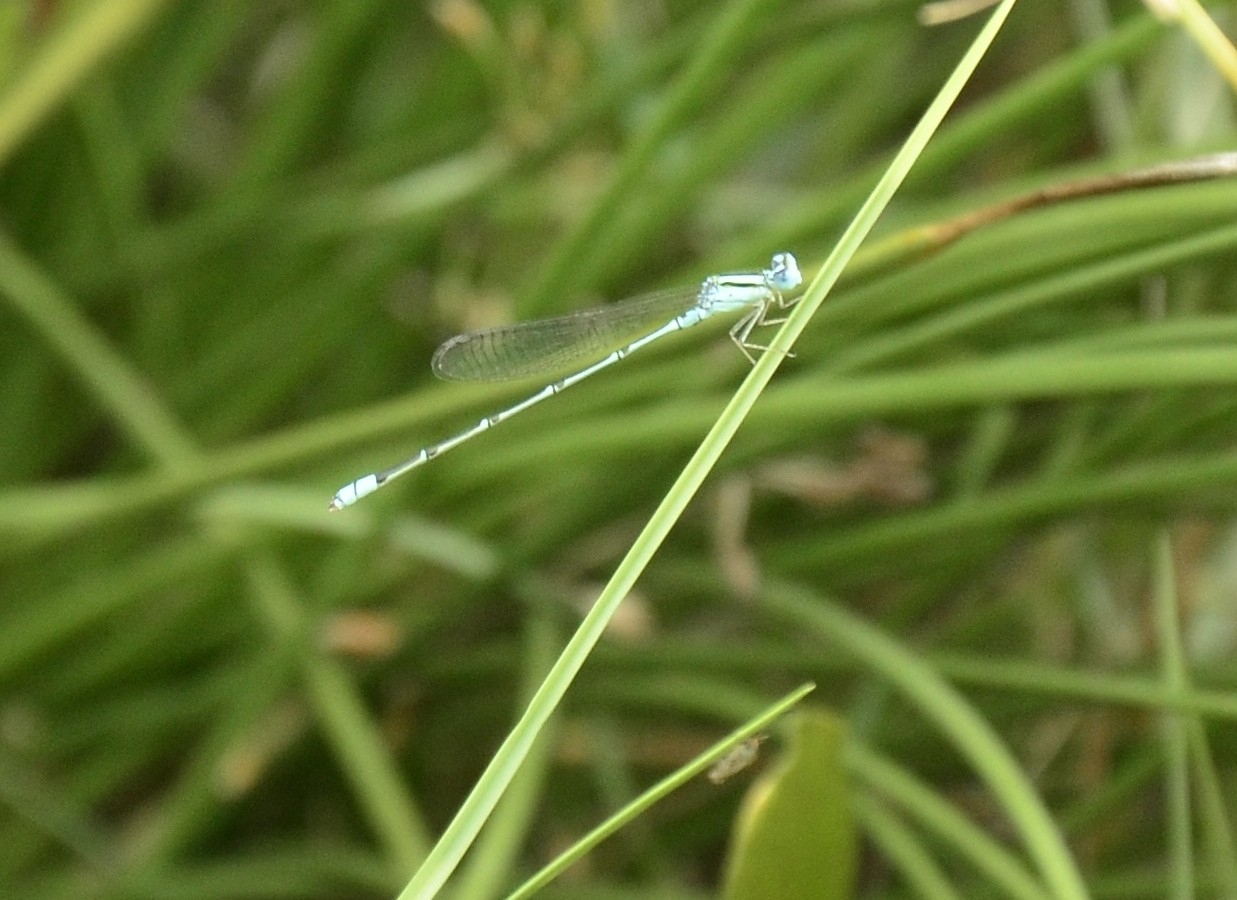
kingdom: Animalia
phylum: Arthropoda
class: Insecta
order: Odonata
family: Coenagrionidae
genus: Pseudagrion
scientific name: Pseudagrion microcephalum
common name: Blue riverdamsel
